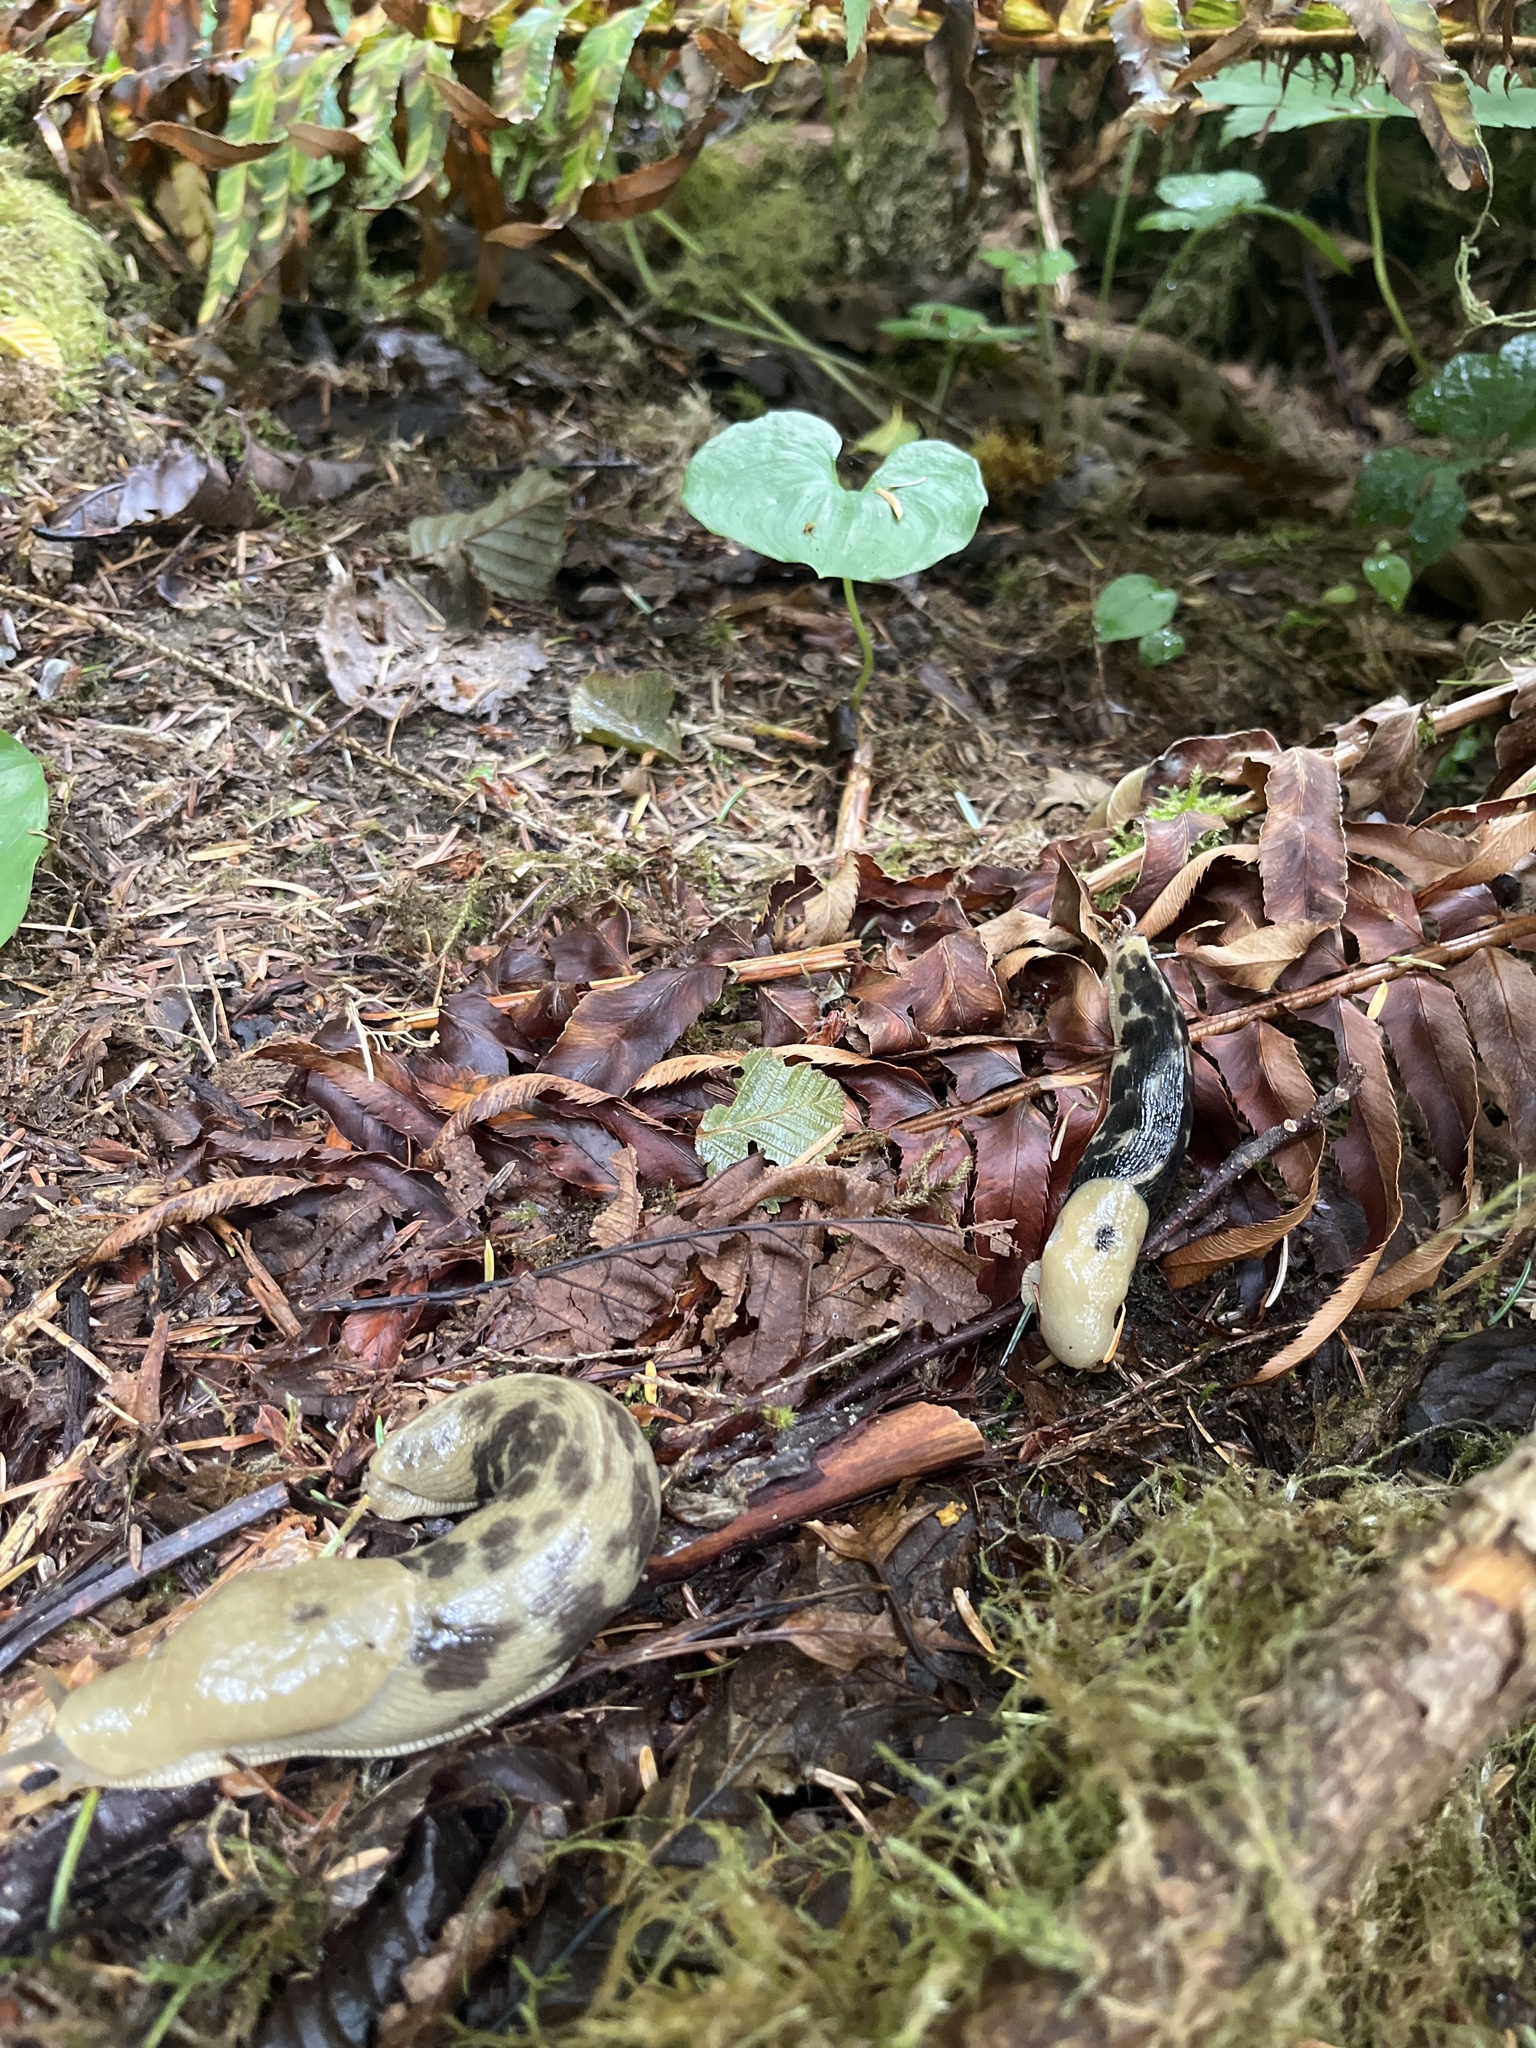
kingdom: Animalia
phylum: Mollusca
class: Gastropoda
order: Stylommatophora
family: Ariolimacidae
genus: Ariolimax
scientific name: Ariolimax columbianus
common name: Pacific banana slug
